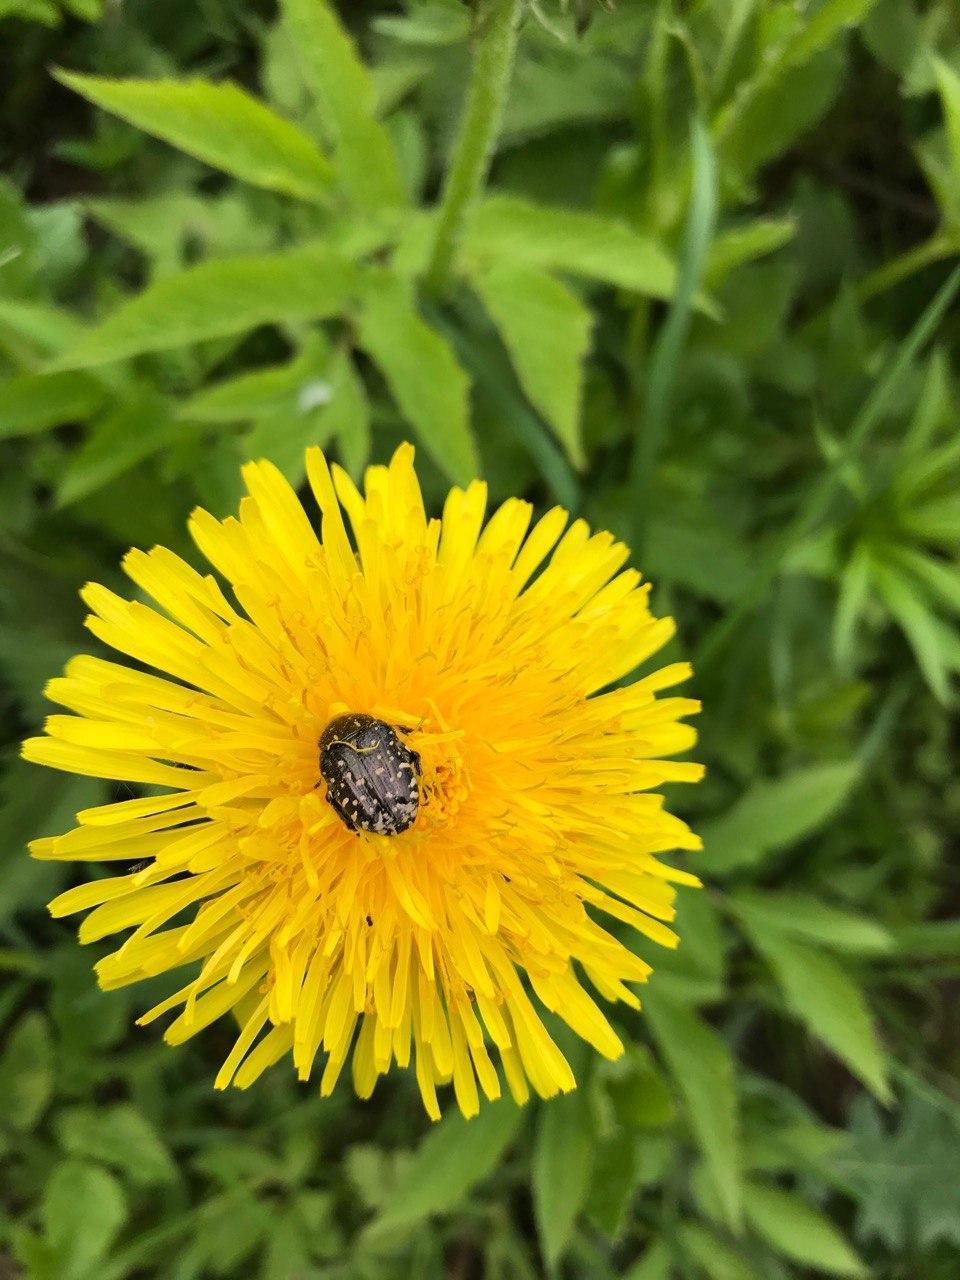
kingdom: Animalia
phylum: Arthropoda
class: Insecta
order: Coleoptera
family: Scarabaeidae
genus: Oxythyrea
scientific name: Oxythyrea funesta
